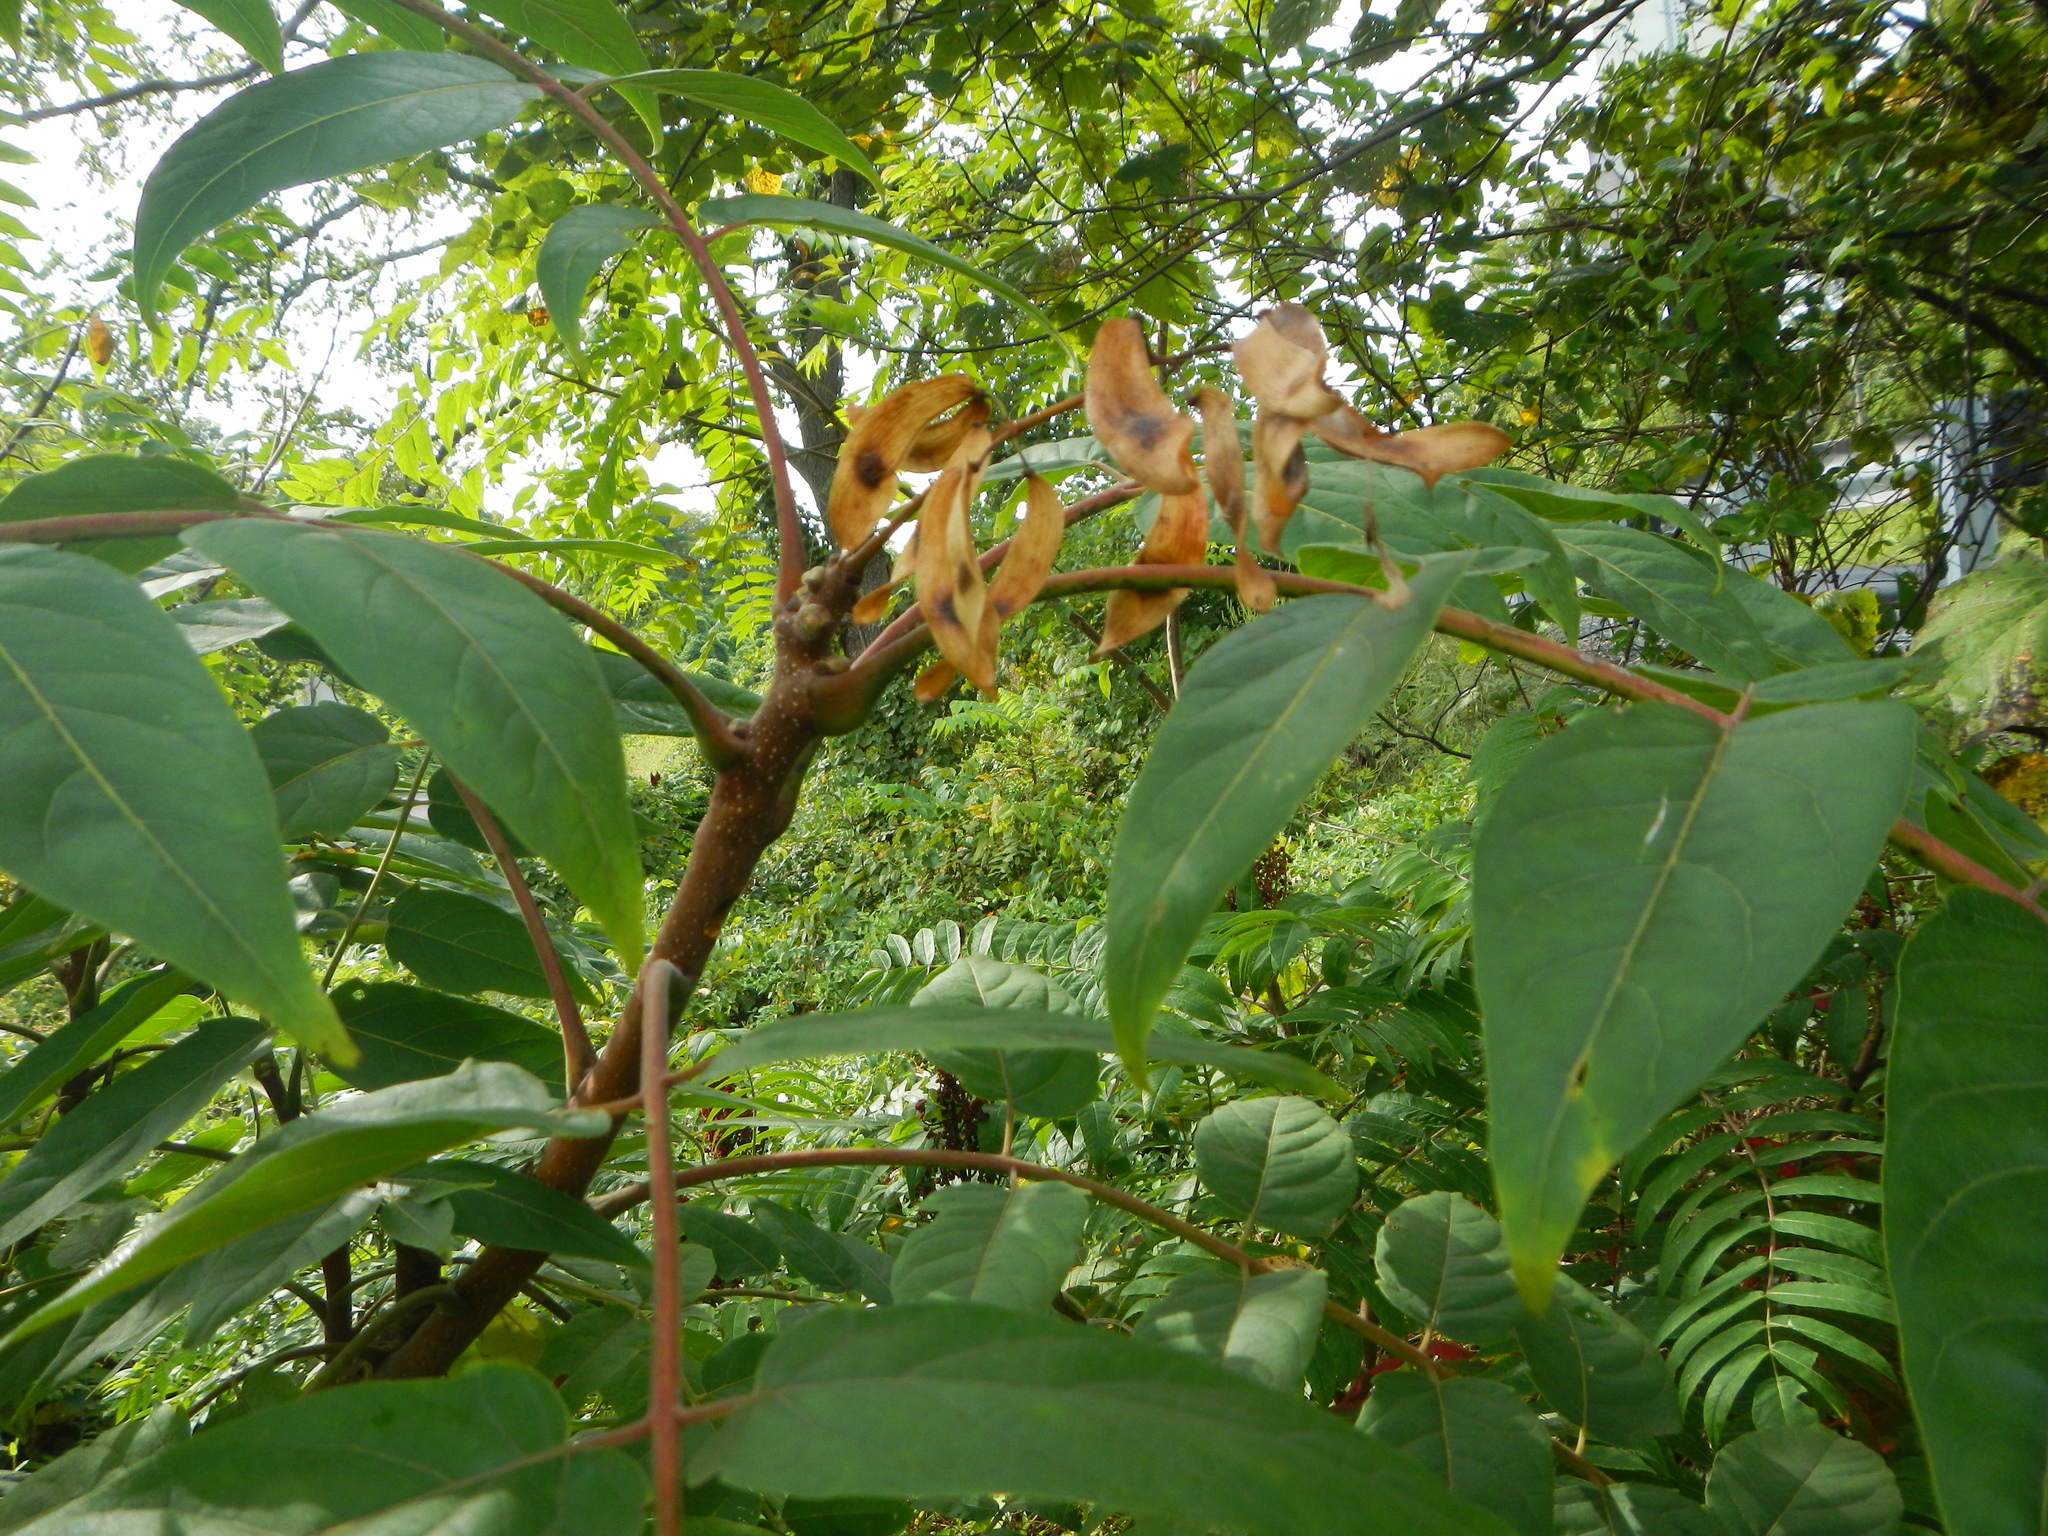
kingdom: Plantae
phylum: Tracheophyta
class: Magnoliopsida
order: Sapindales
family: Simaroubaceae
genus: Ailanthus
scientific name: Ailanthus altissima
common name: Tree-of-heaven
